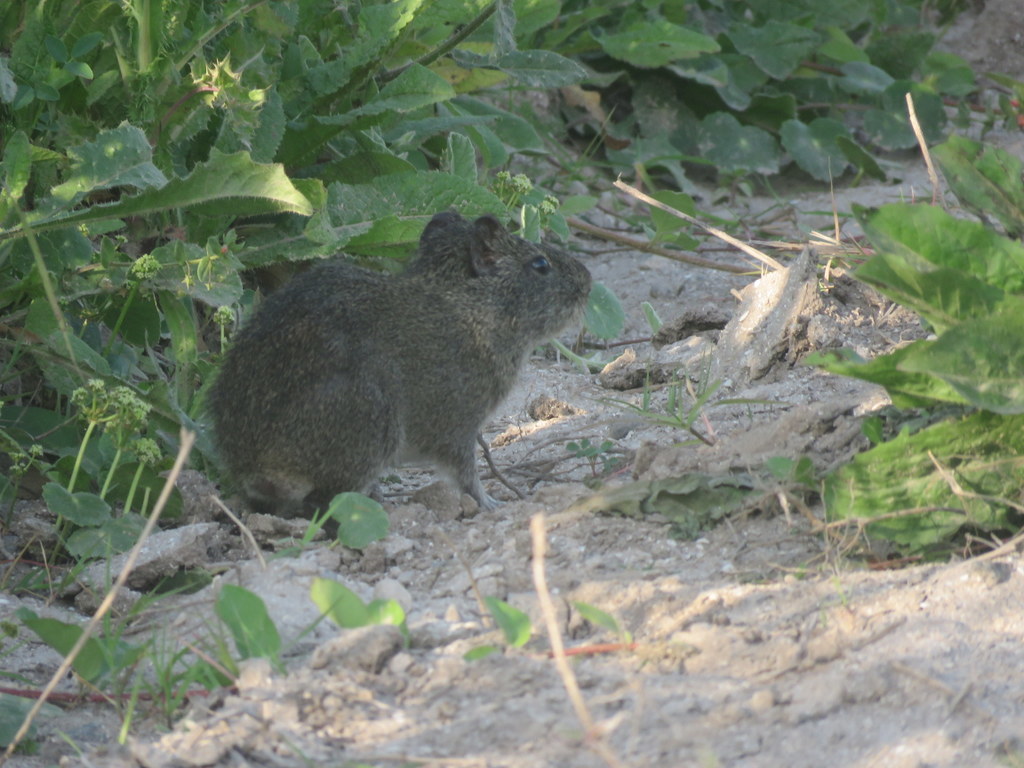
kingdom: Animalia
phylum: Chordata
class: Mammalia
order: Rodentia
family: Caviidae
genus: Cavia
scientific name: Cavia aperea
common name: Brazilian guinea pig
